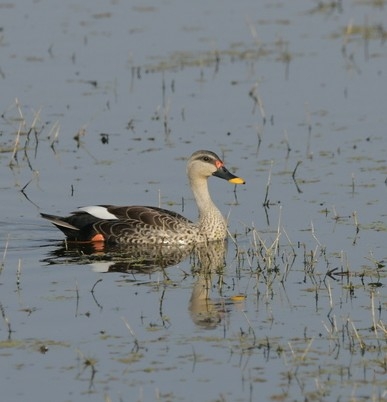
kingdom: Animalia
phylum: Chordata
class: Aves
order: Anseriformes
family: Anatidae
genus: Anas
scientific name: Anas poecilorhyncha
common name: Indian spot-billed duck
